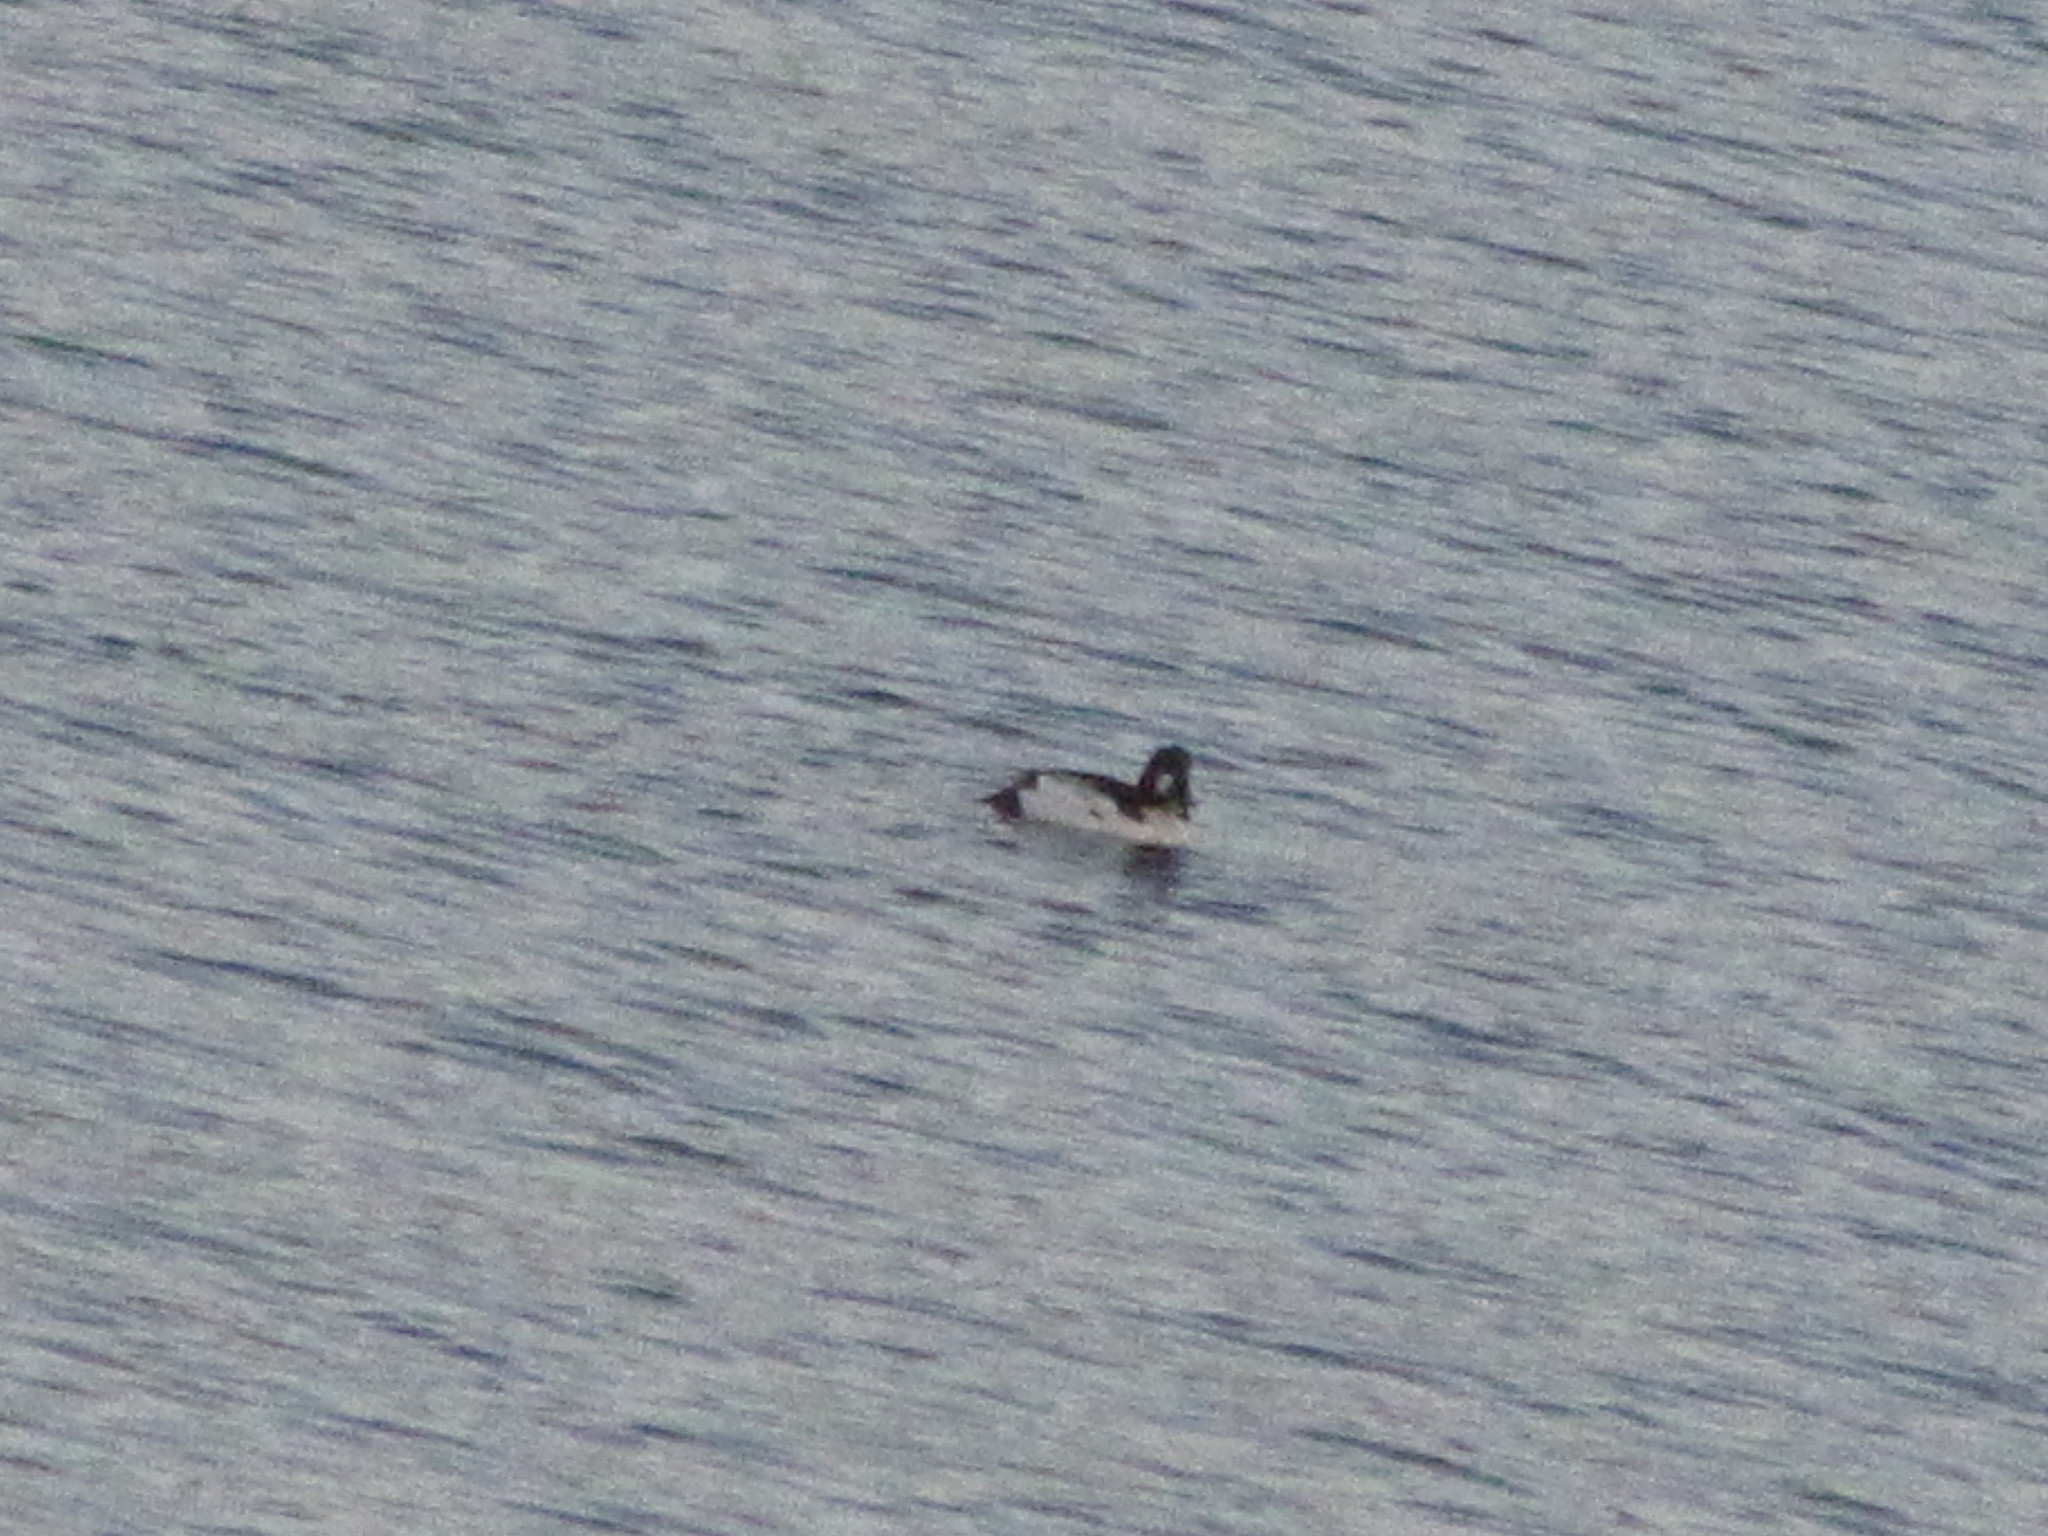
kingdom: Animalia
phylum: Chordata
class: Aves
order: Anseriformes
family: Anatidae
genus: Bucephala
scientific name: Bucephala clangula
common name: Common goldeneye
